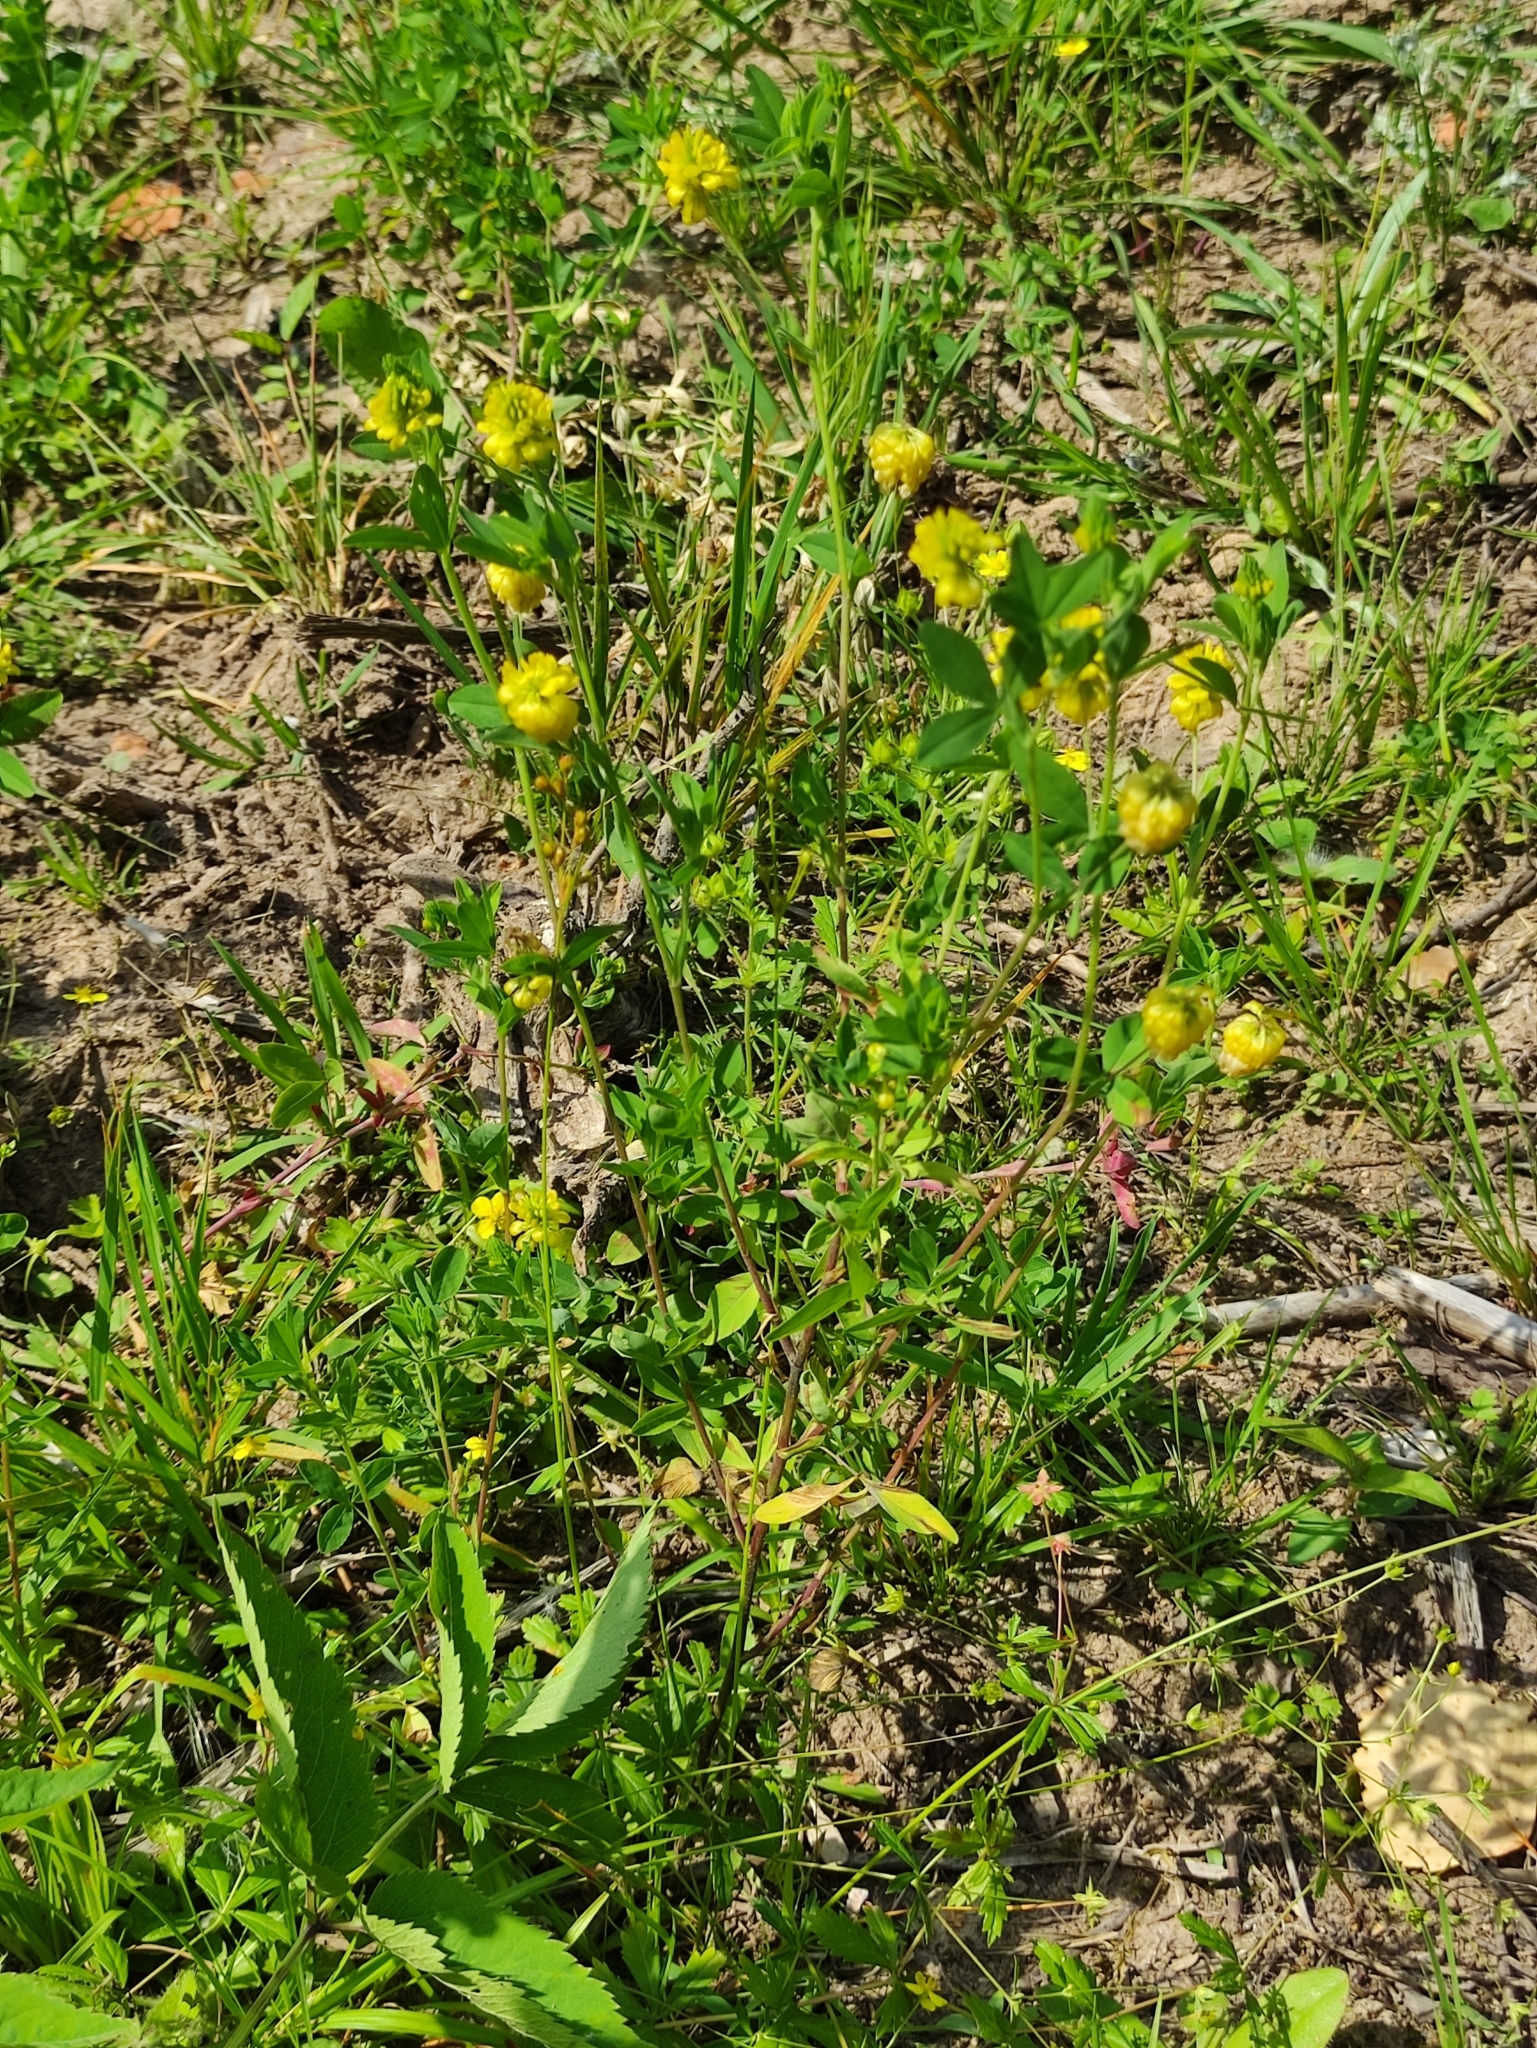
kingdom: Plantae
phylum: Tracheophyta
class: Magnoliopsida
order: Fabales
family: Fabaceae
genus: Trifolium
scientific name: Trifolium aureum
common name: Golden clover
